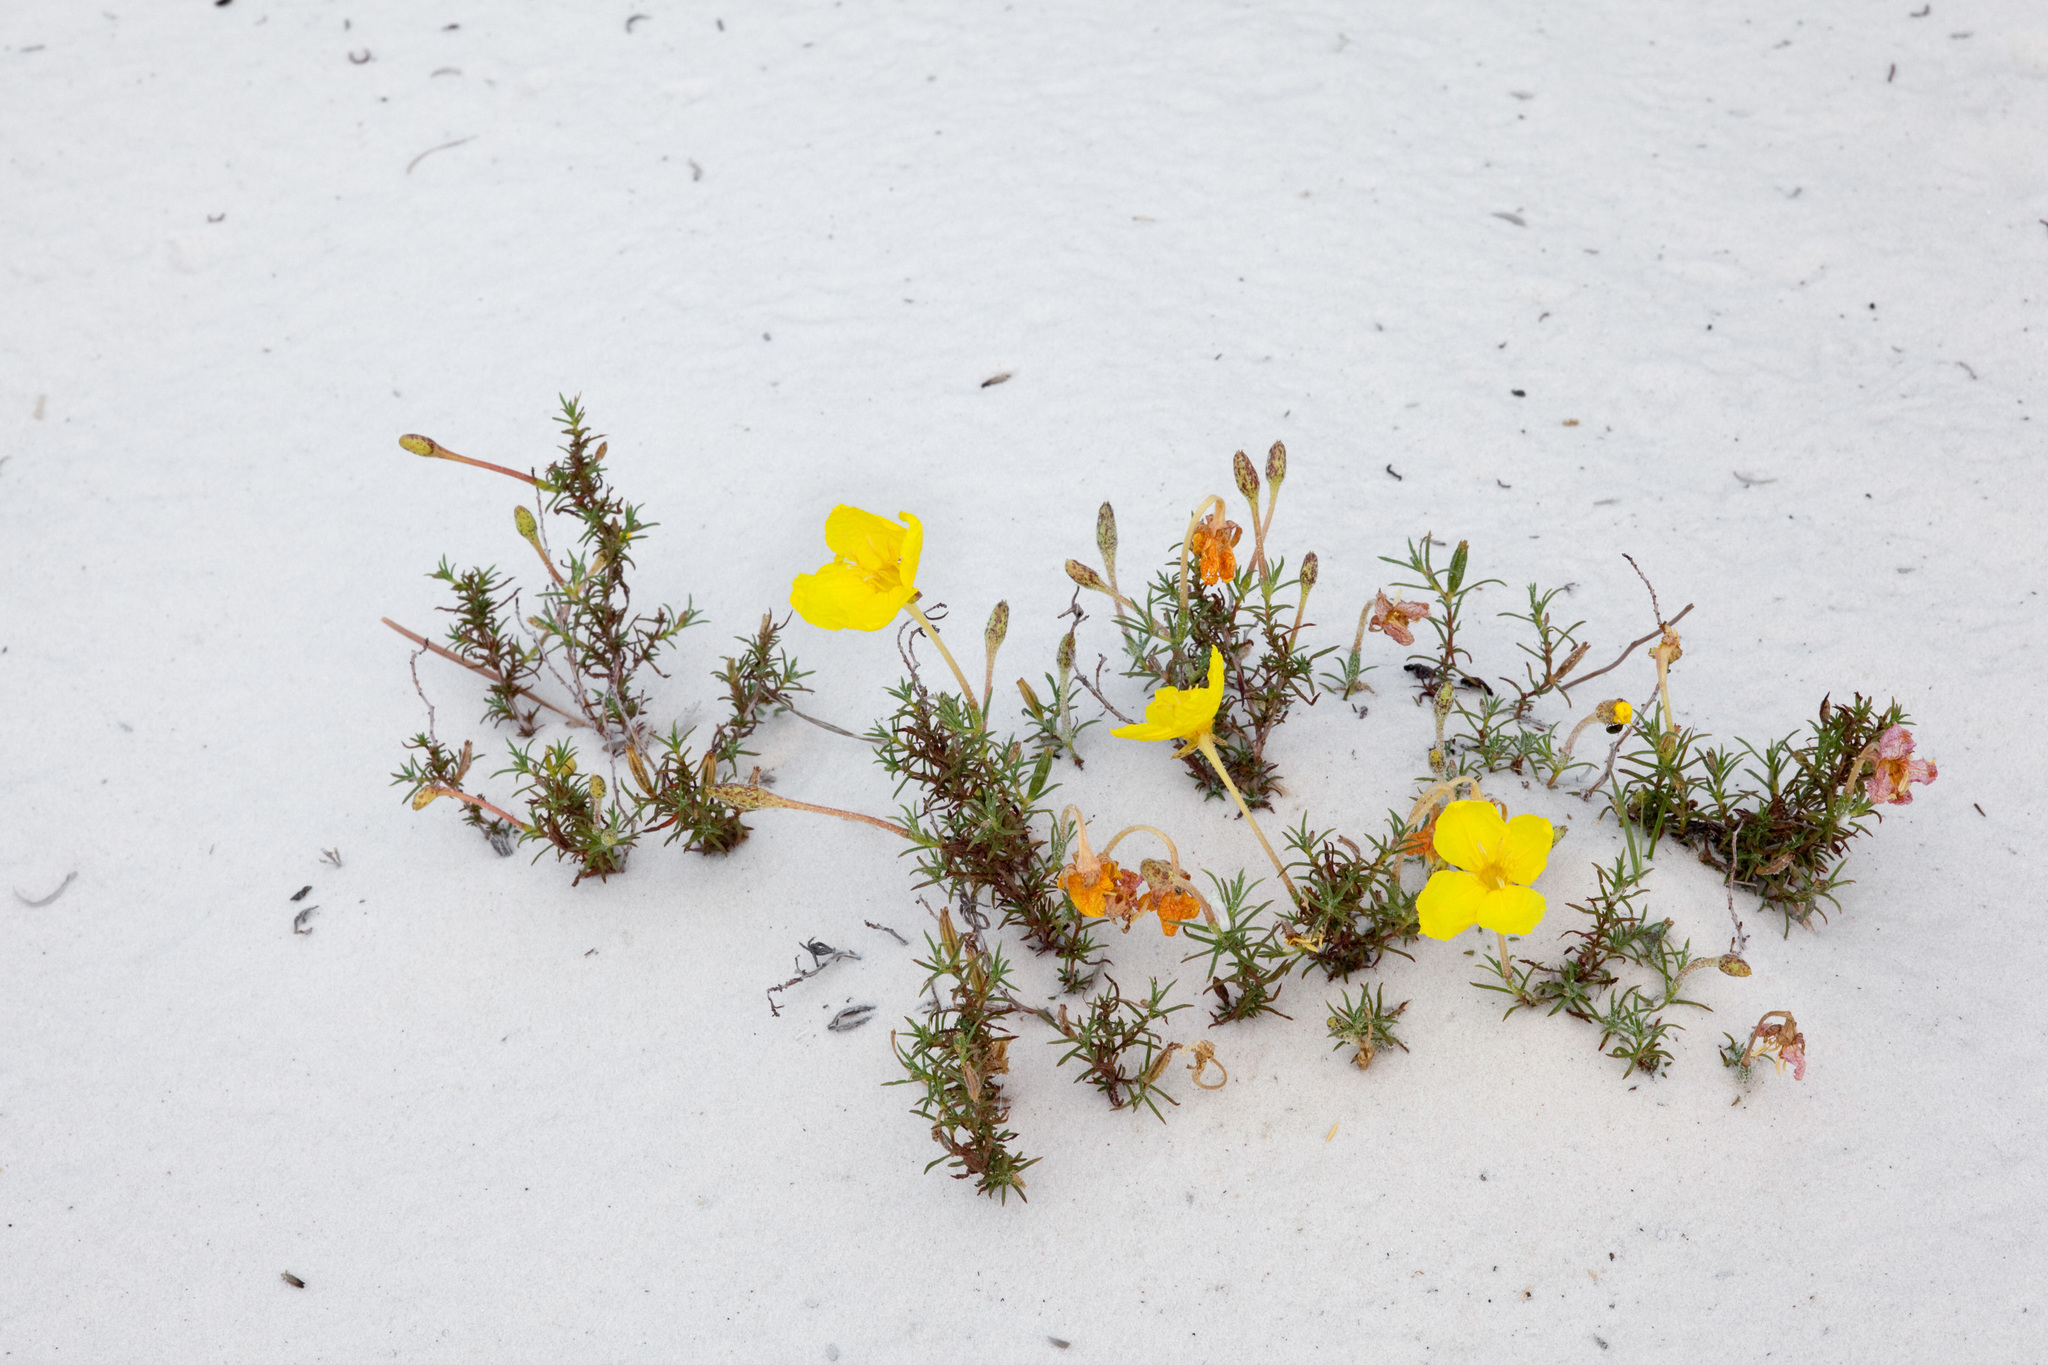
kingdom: Plantae
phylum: Tracheophyta
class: Magnoliopsida
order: Myrtales
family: Onagraceae
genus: Oenothera
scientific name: Oenothera hartwegii
